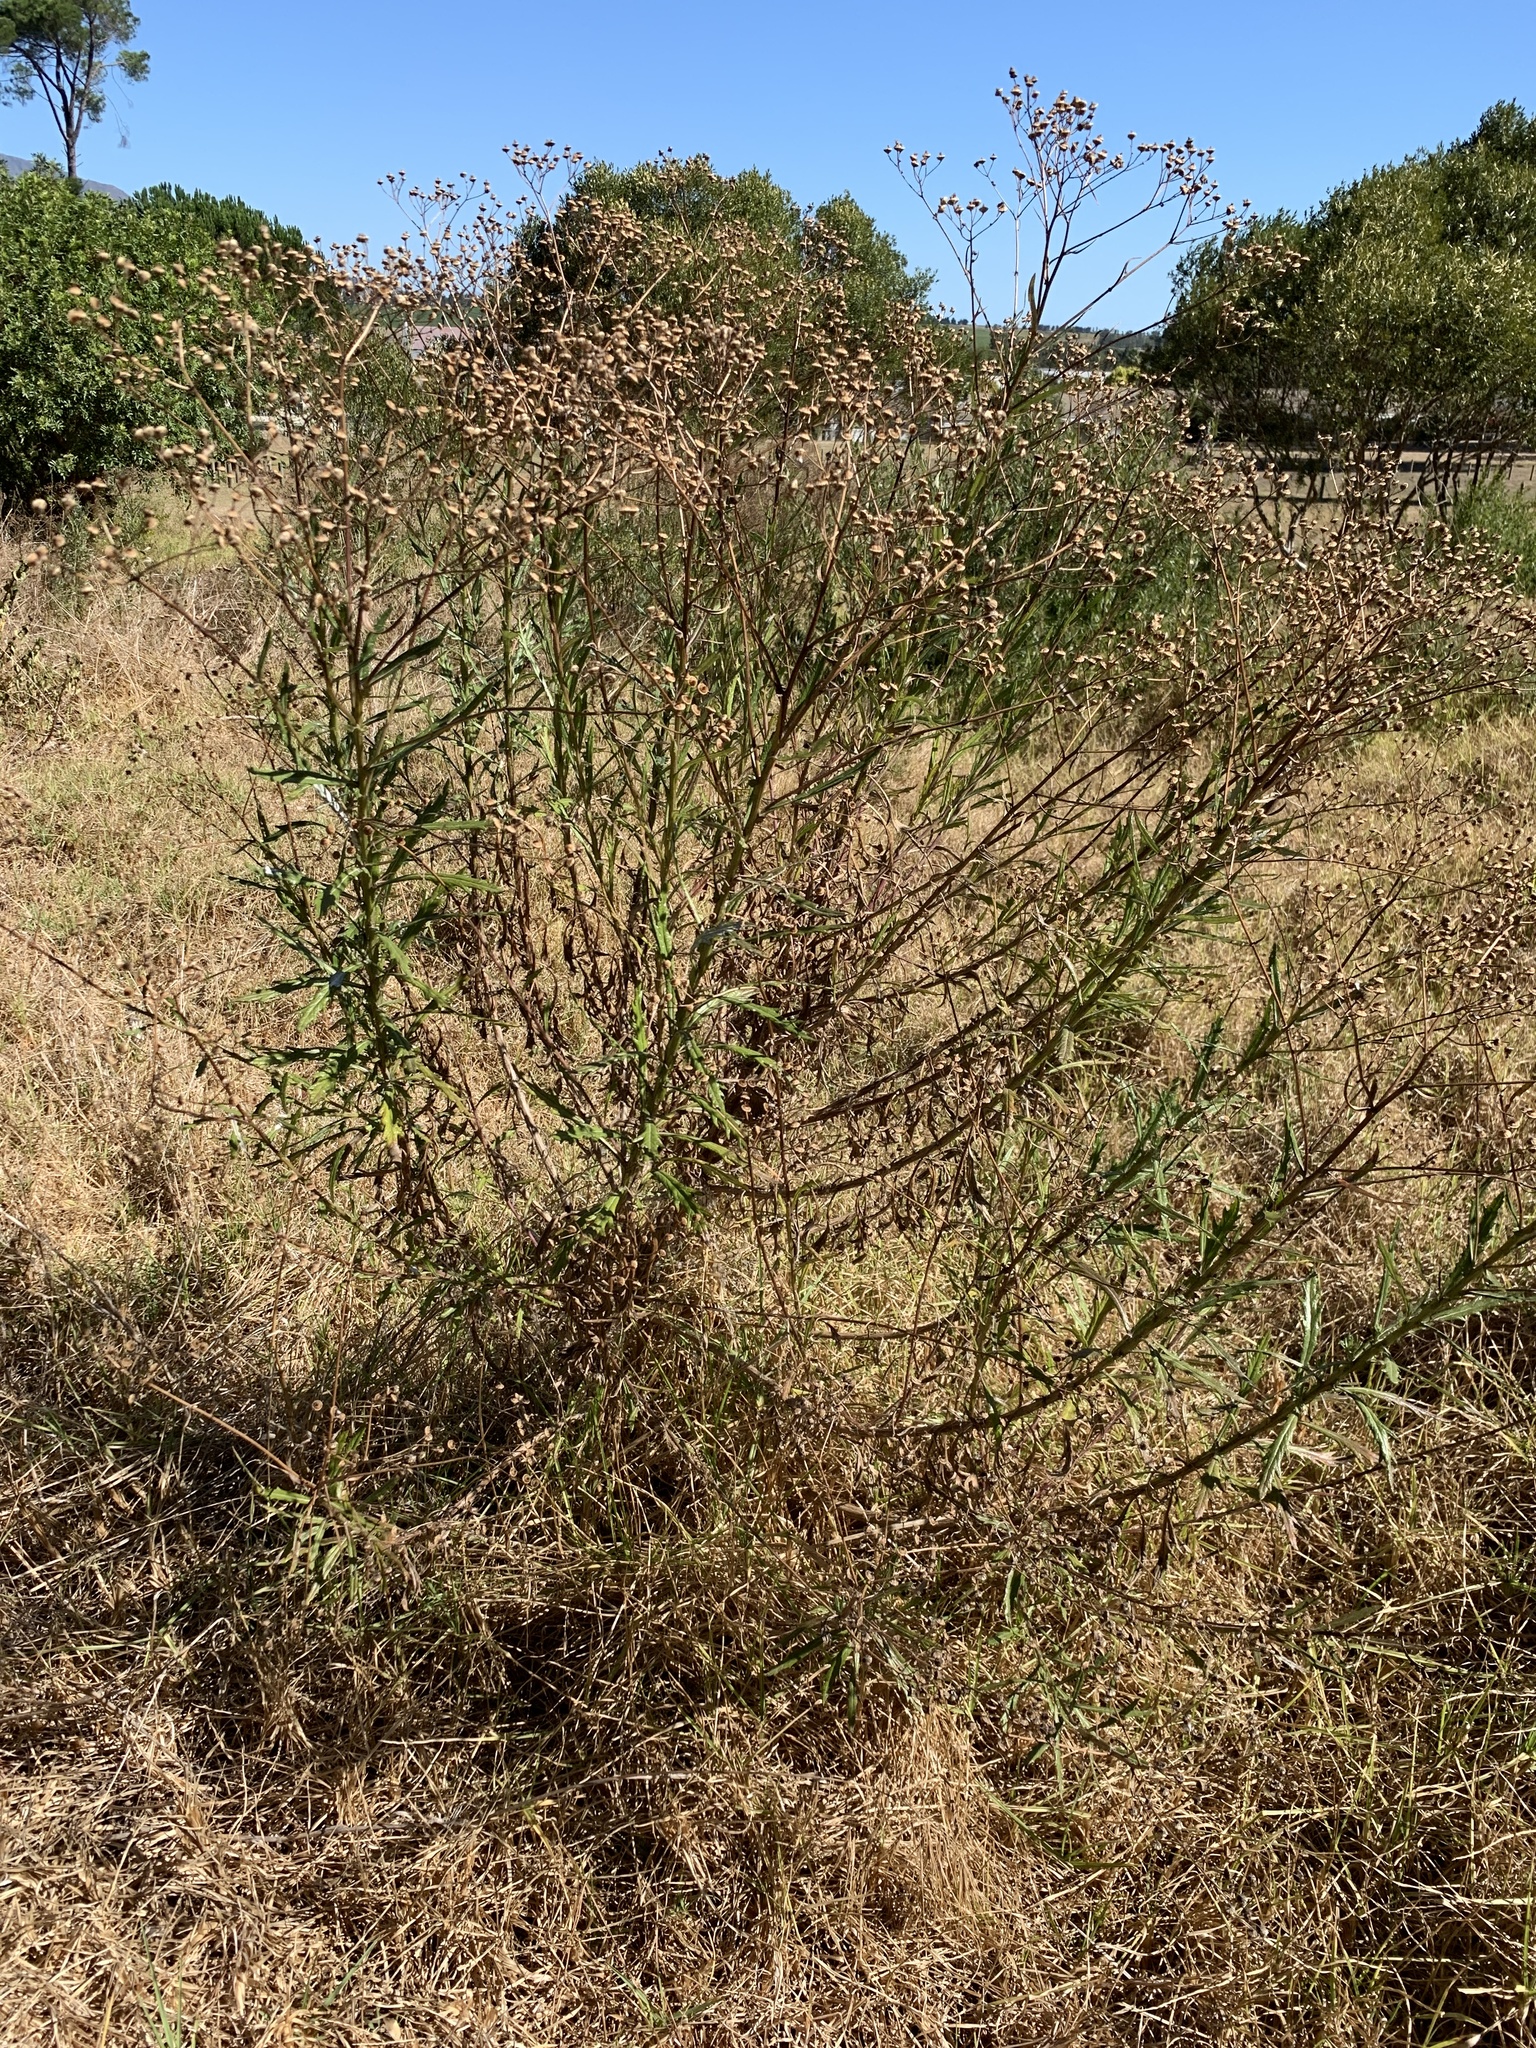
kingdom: Plantae
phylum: Tracheophyta
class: Magnoliopsida
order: Asterales
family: Asteraceae
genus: Senecio
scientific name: Senecio pterophorus
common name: Shoddy ragwort
